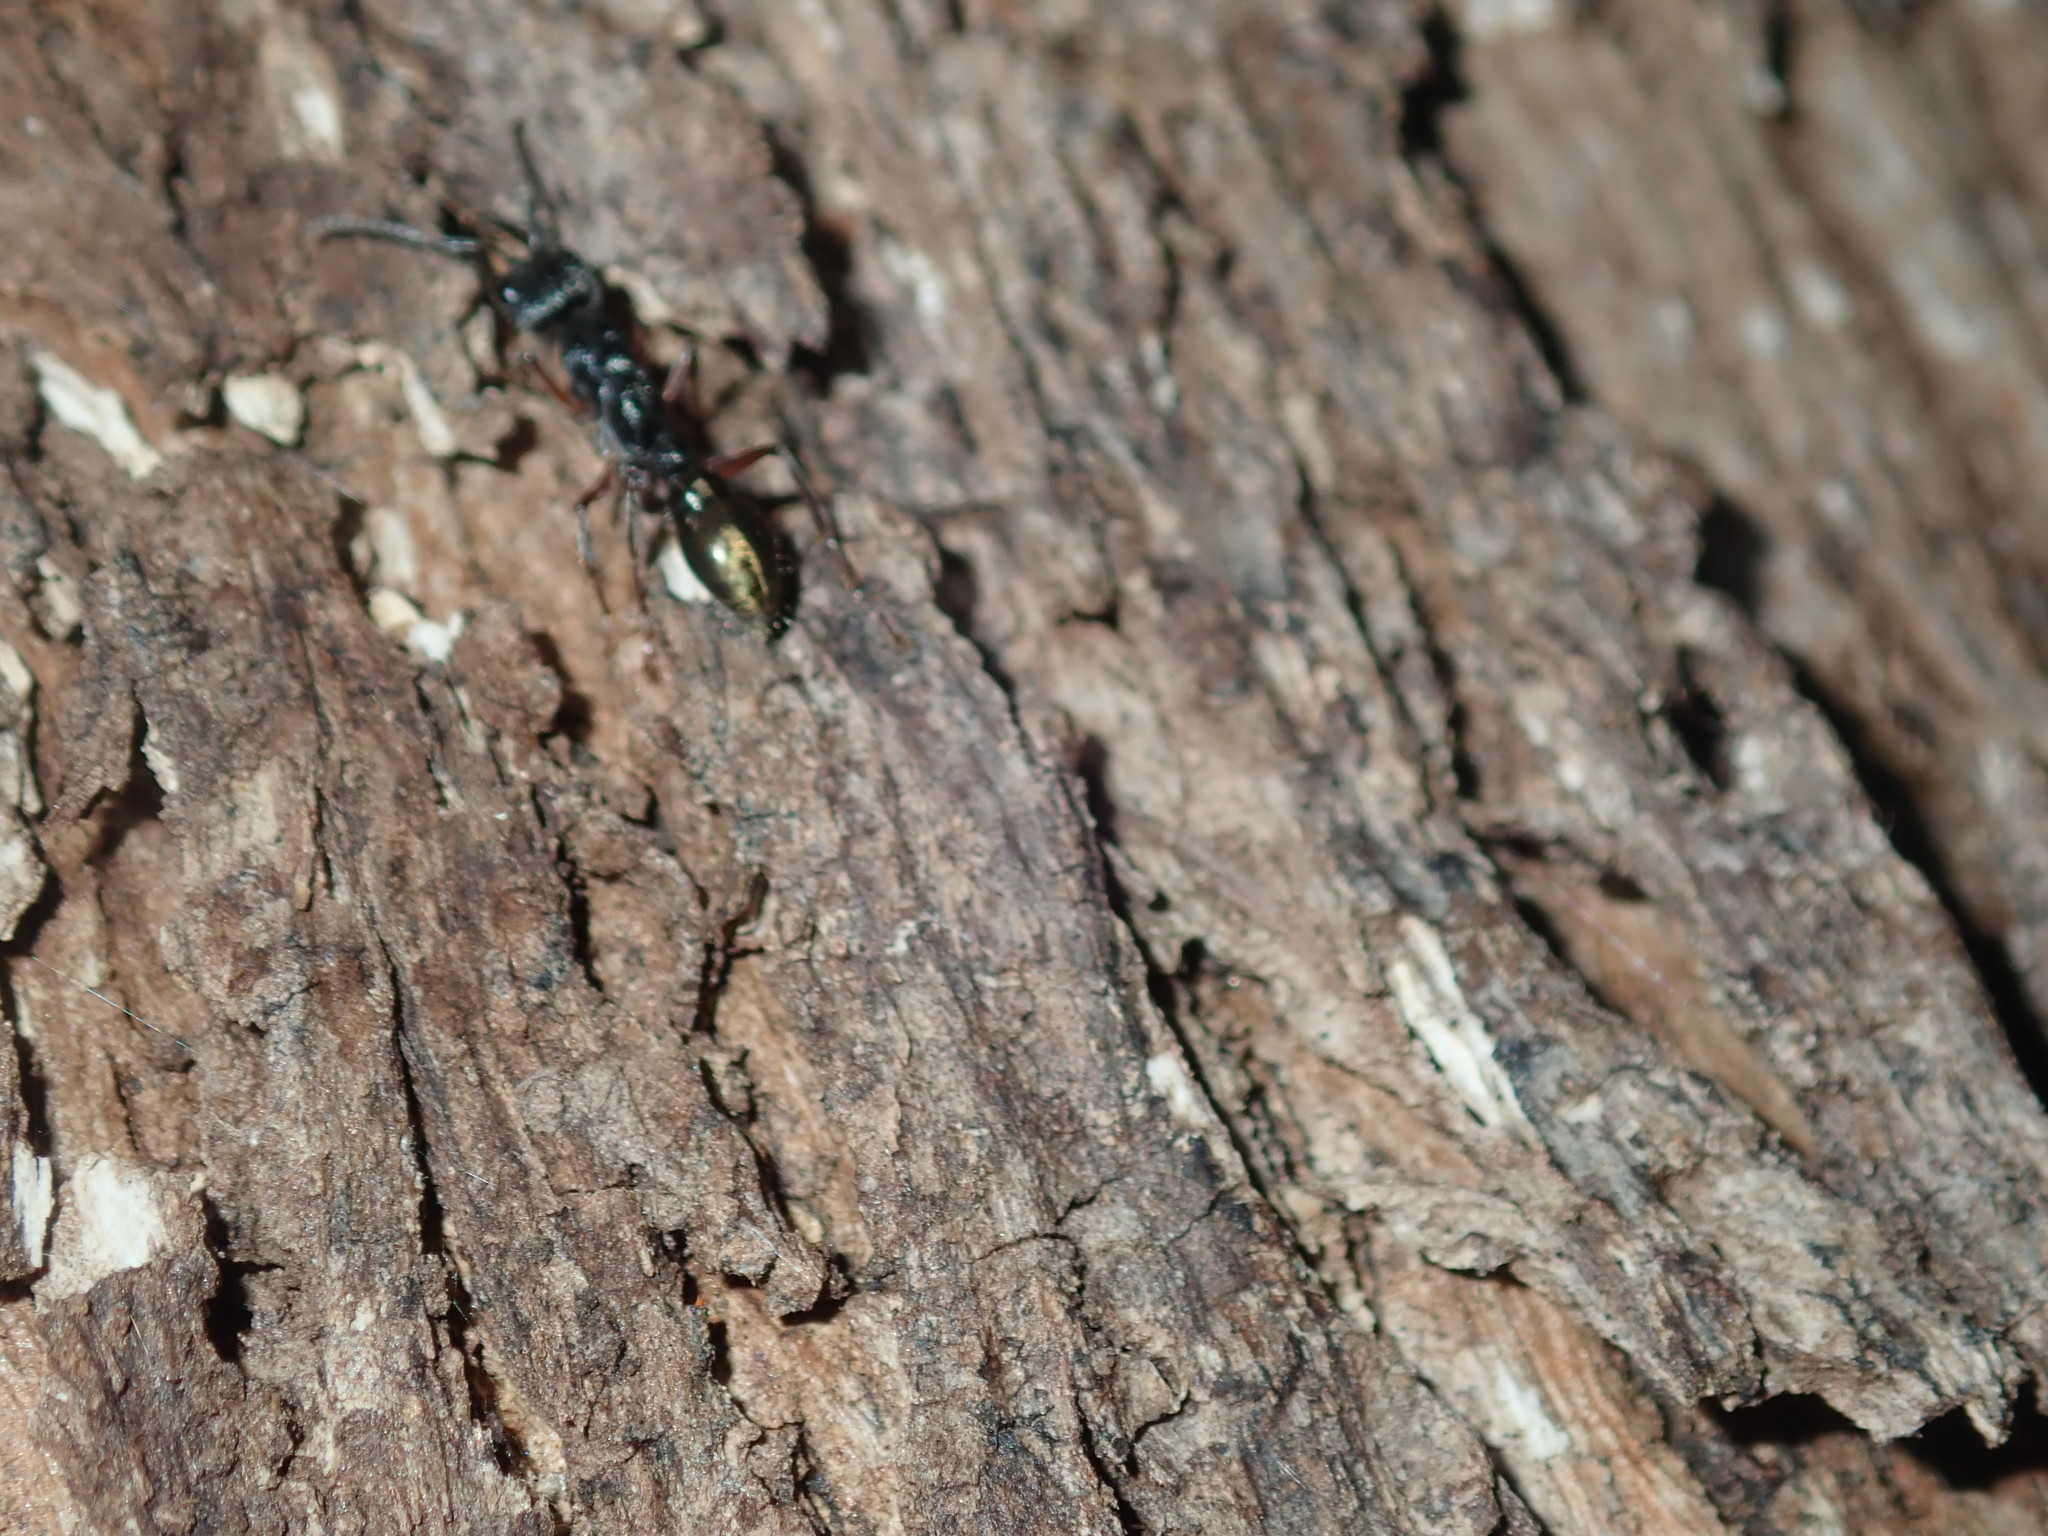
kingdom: Animalia
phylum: Arthropoda
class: Insecta
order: Hymenoptera
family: Formicidae
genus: Myrmecia
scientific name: Myrmecia fulvipes
